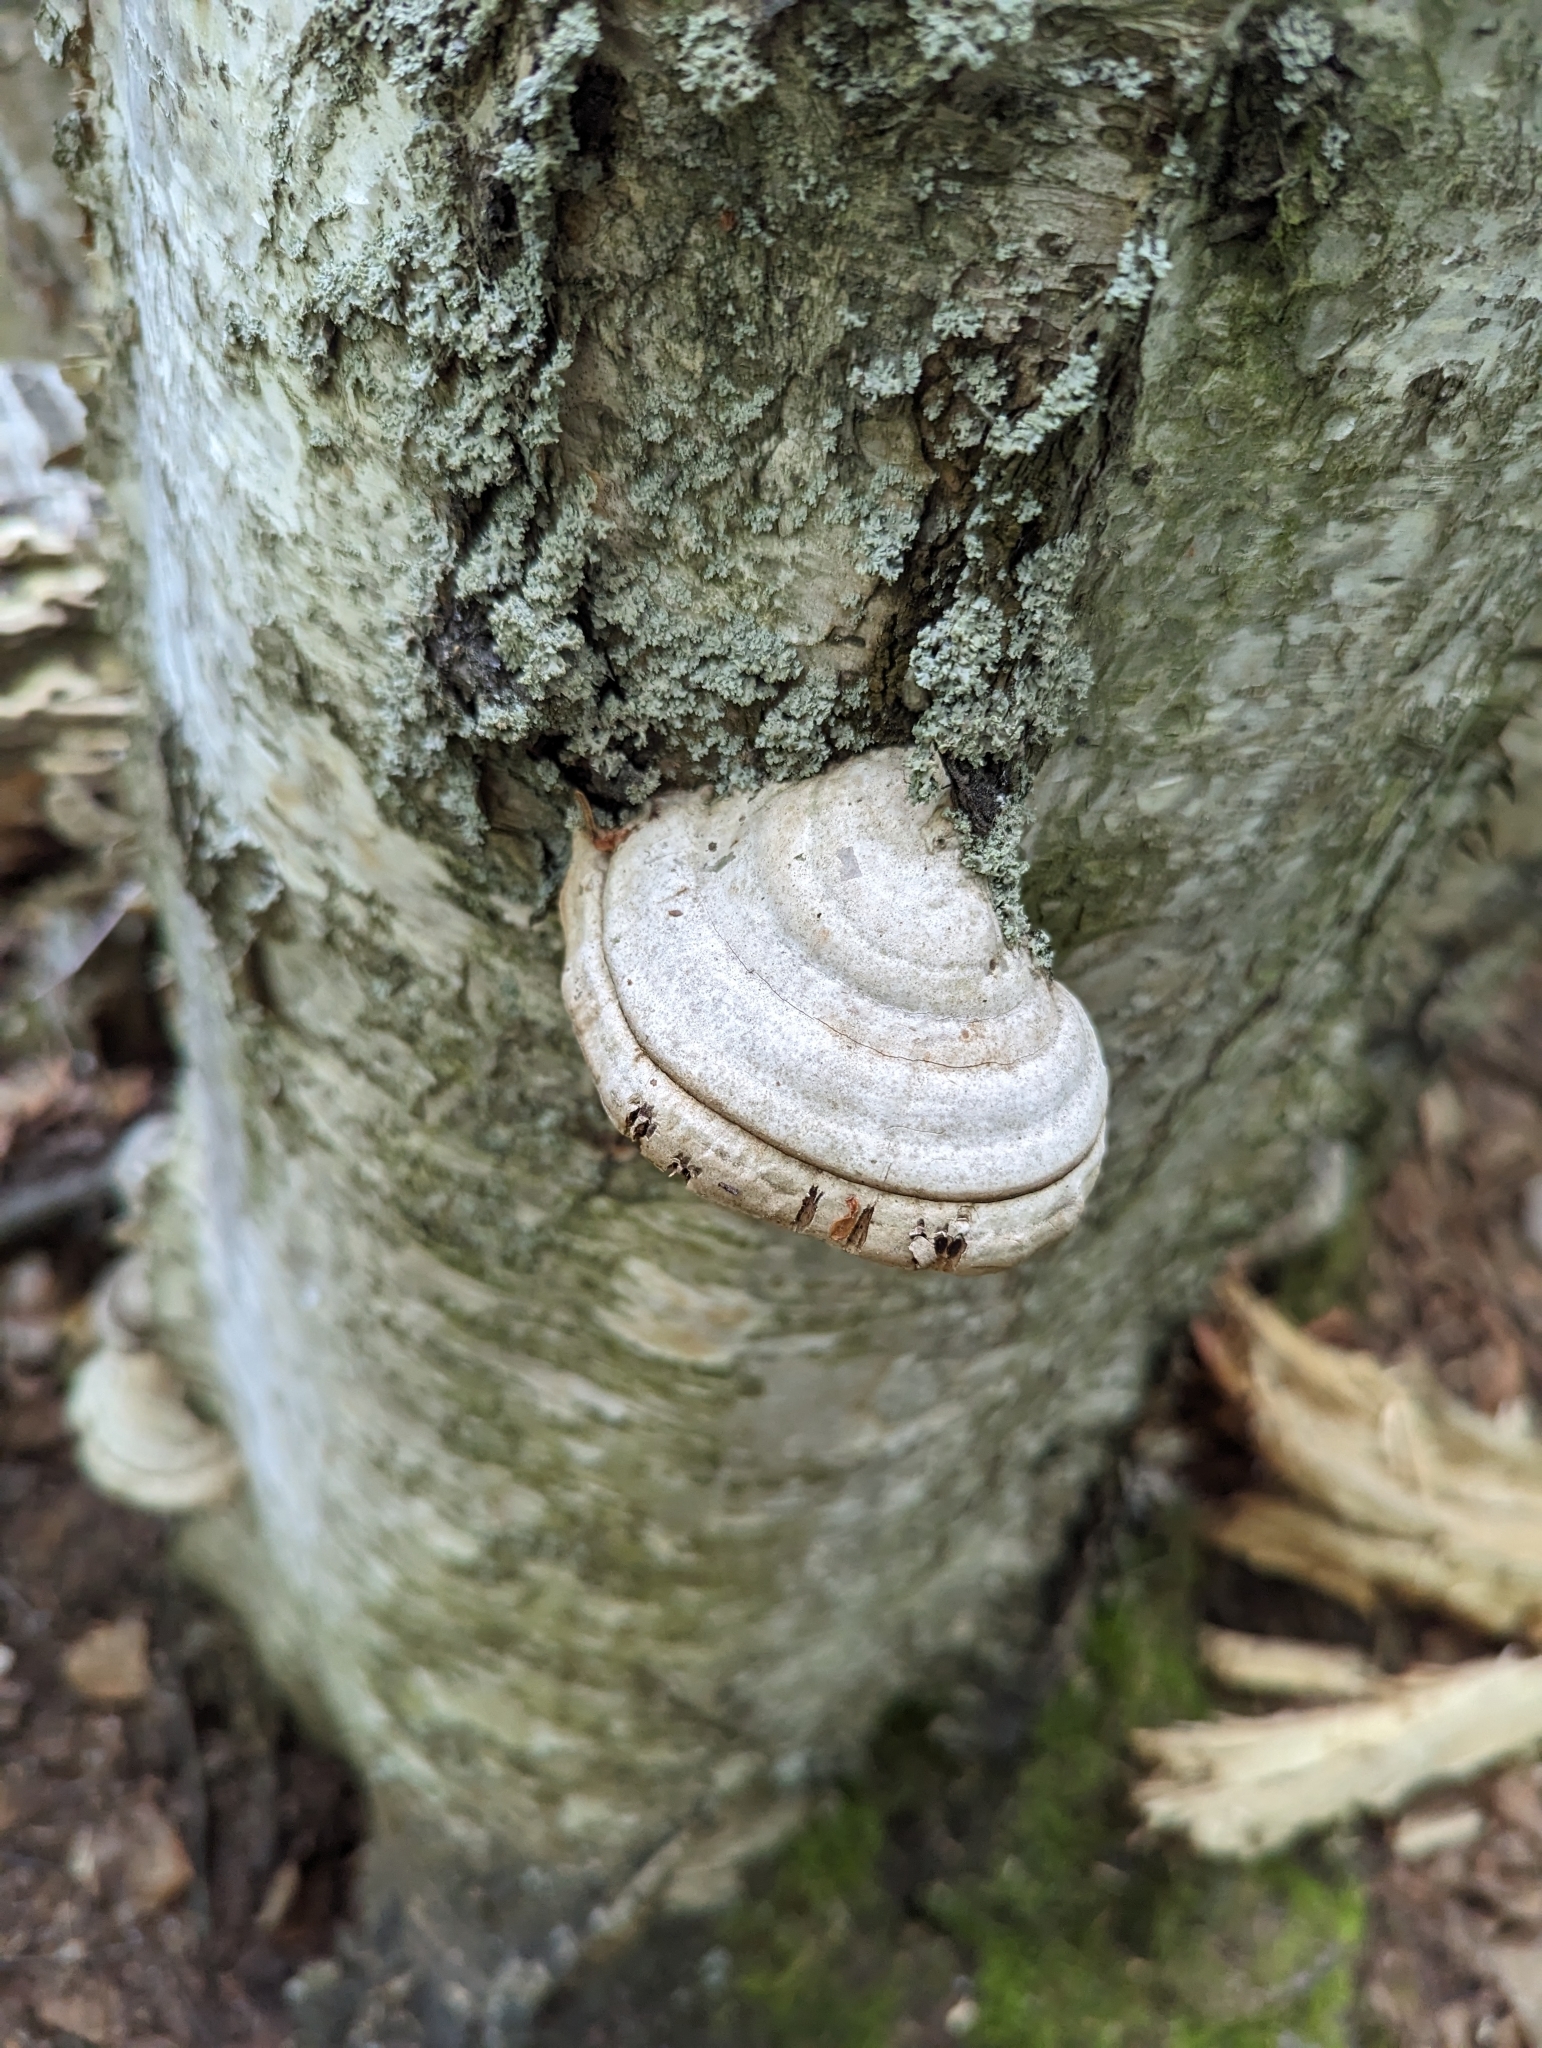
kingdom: Fungi
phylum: Basidiomycota
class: Agaricomycetes
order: Polyporales
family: Polyporaceae
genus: Fomes
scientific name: Fomes fomentarius
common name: Hoof fungus
